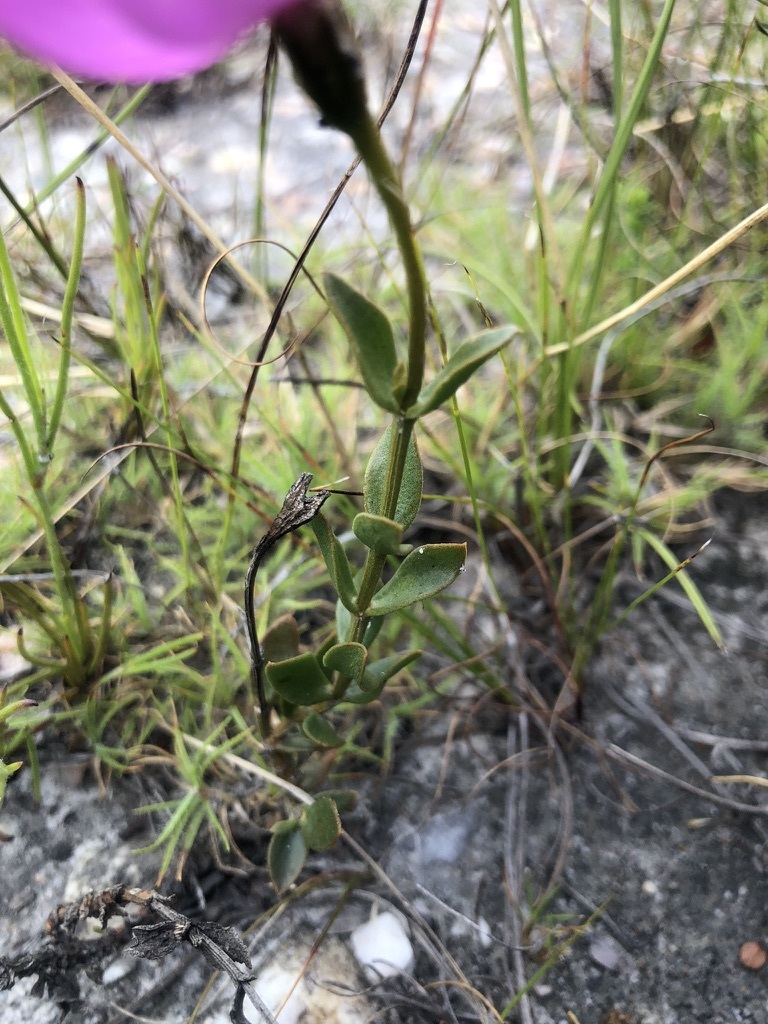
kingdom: Plantae
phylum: Tracheophyta
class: Magnoliopsida
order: Gentianales
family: Gentianaceae
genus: Orphium
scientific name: Orphium frutescens
